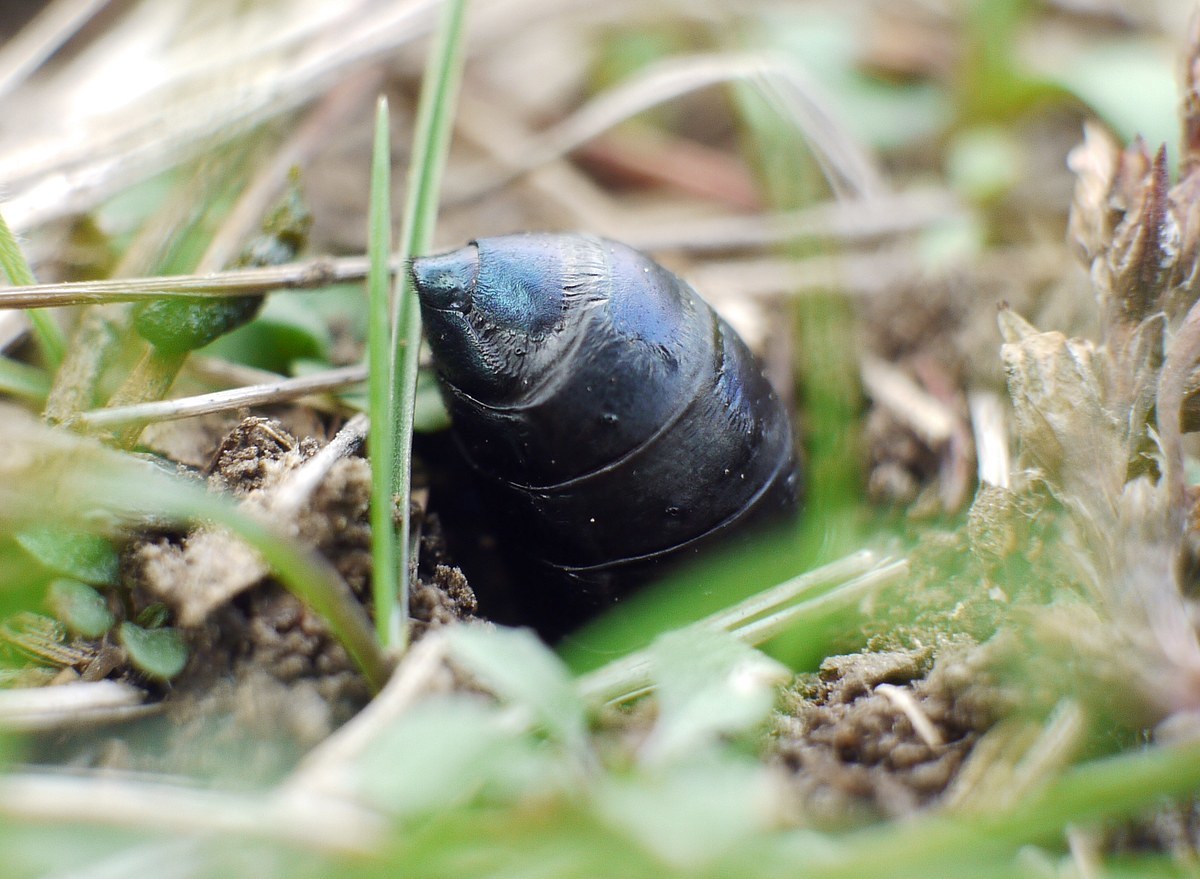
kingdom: Animalia
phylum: Arthropoda
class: Insecta
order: Coleoptera
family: Meloidae
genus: Meloe
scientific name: Meloe autumnalis
